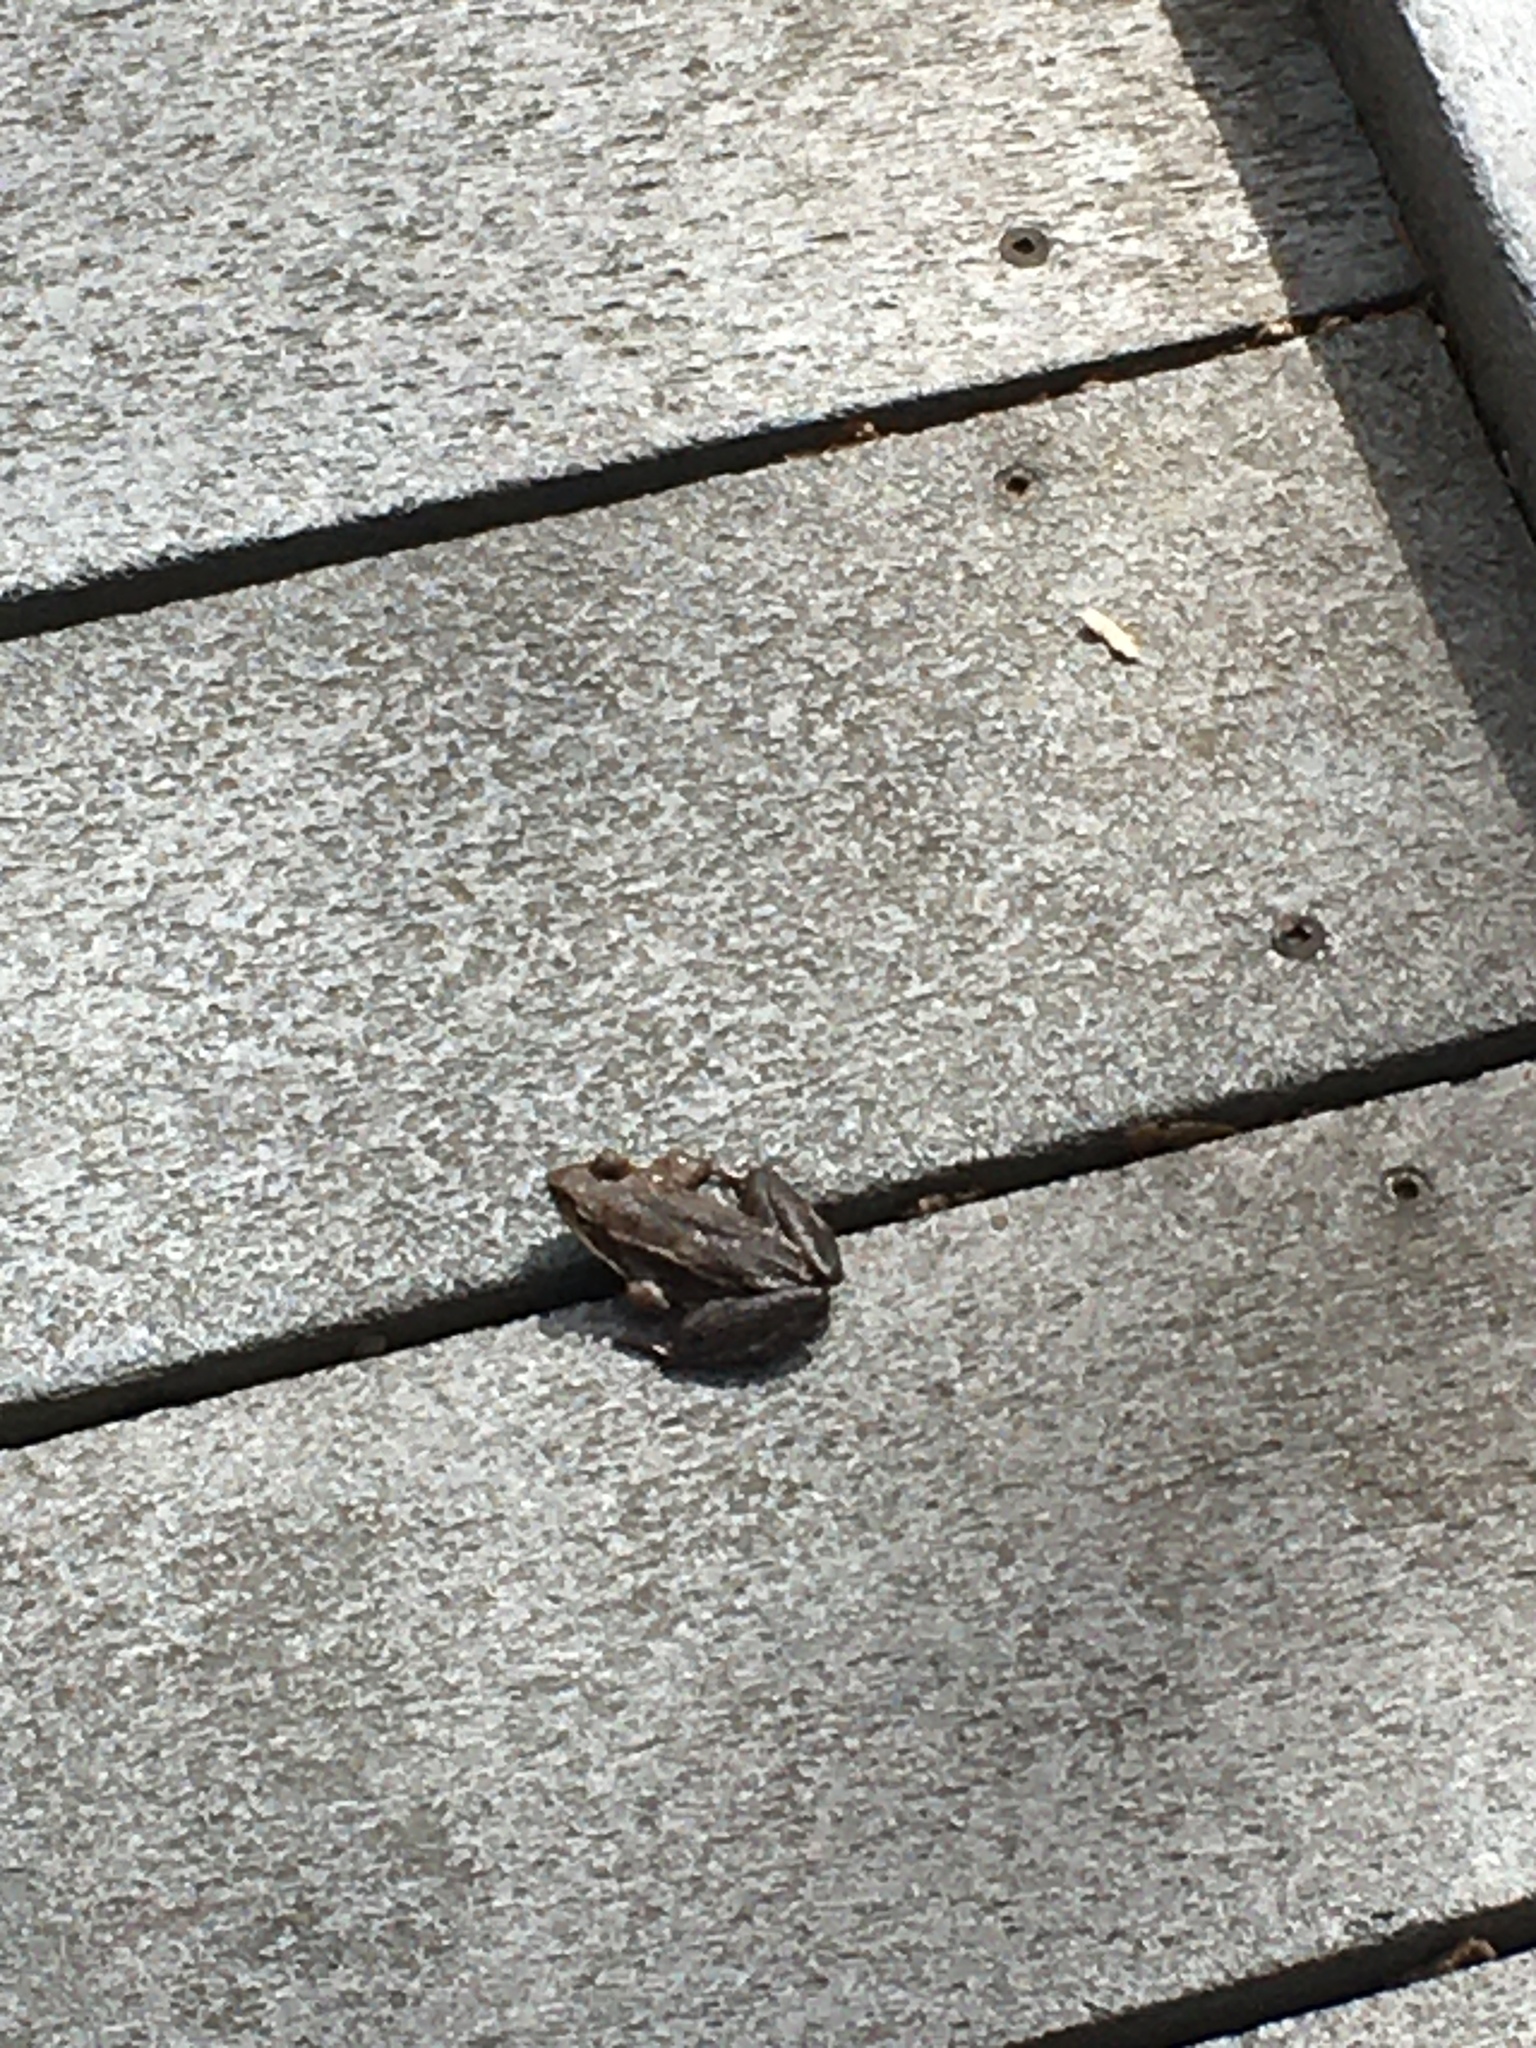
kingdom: Animalia
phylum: Chordata
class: Amphibia
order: Anura
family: Ranidae
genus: Lithobates
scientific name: Lithobates sylvaticus
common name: Wood frog
